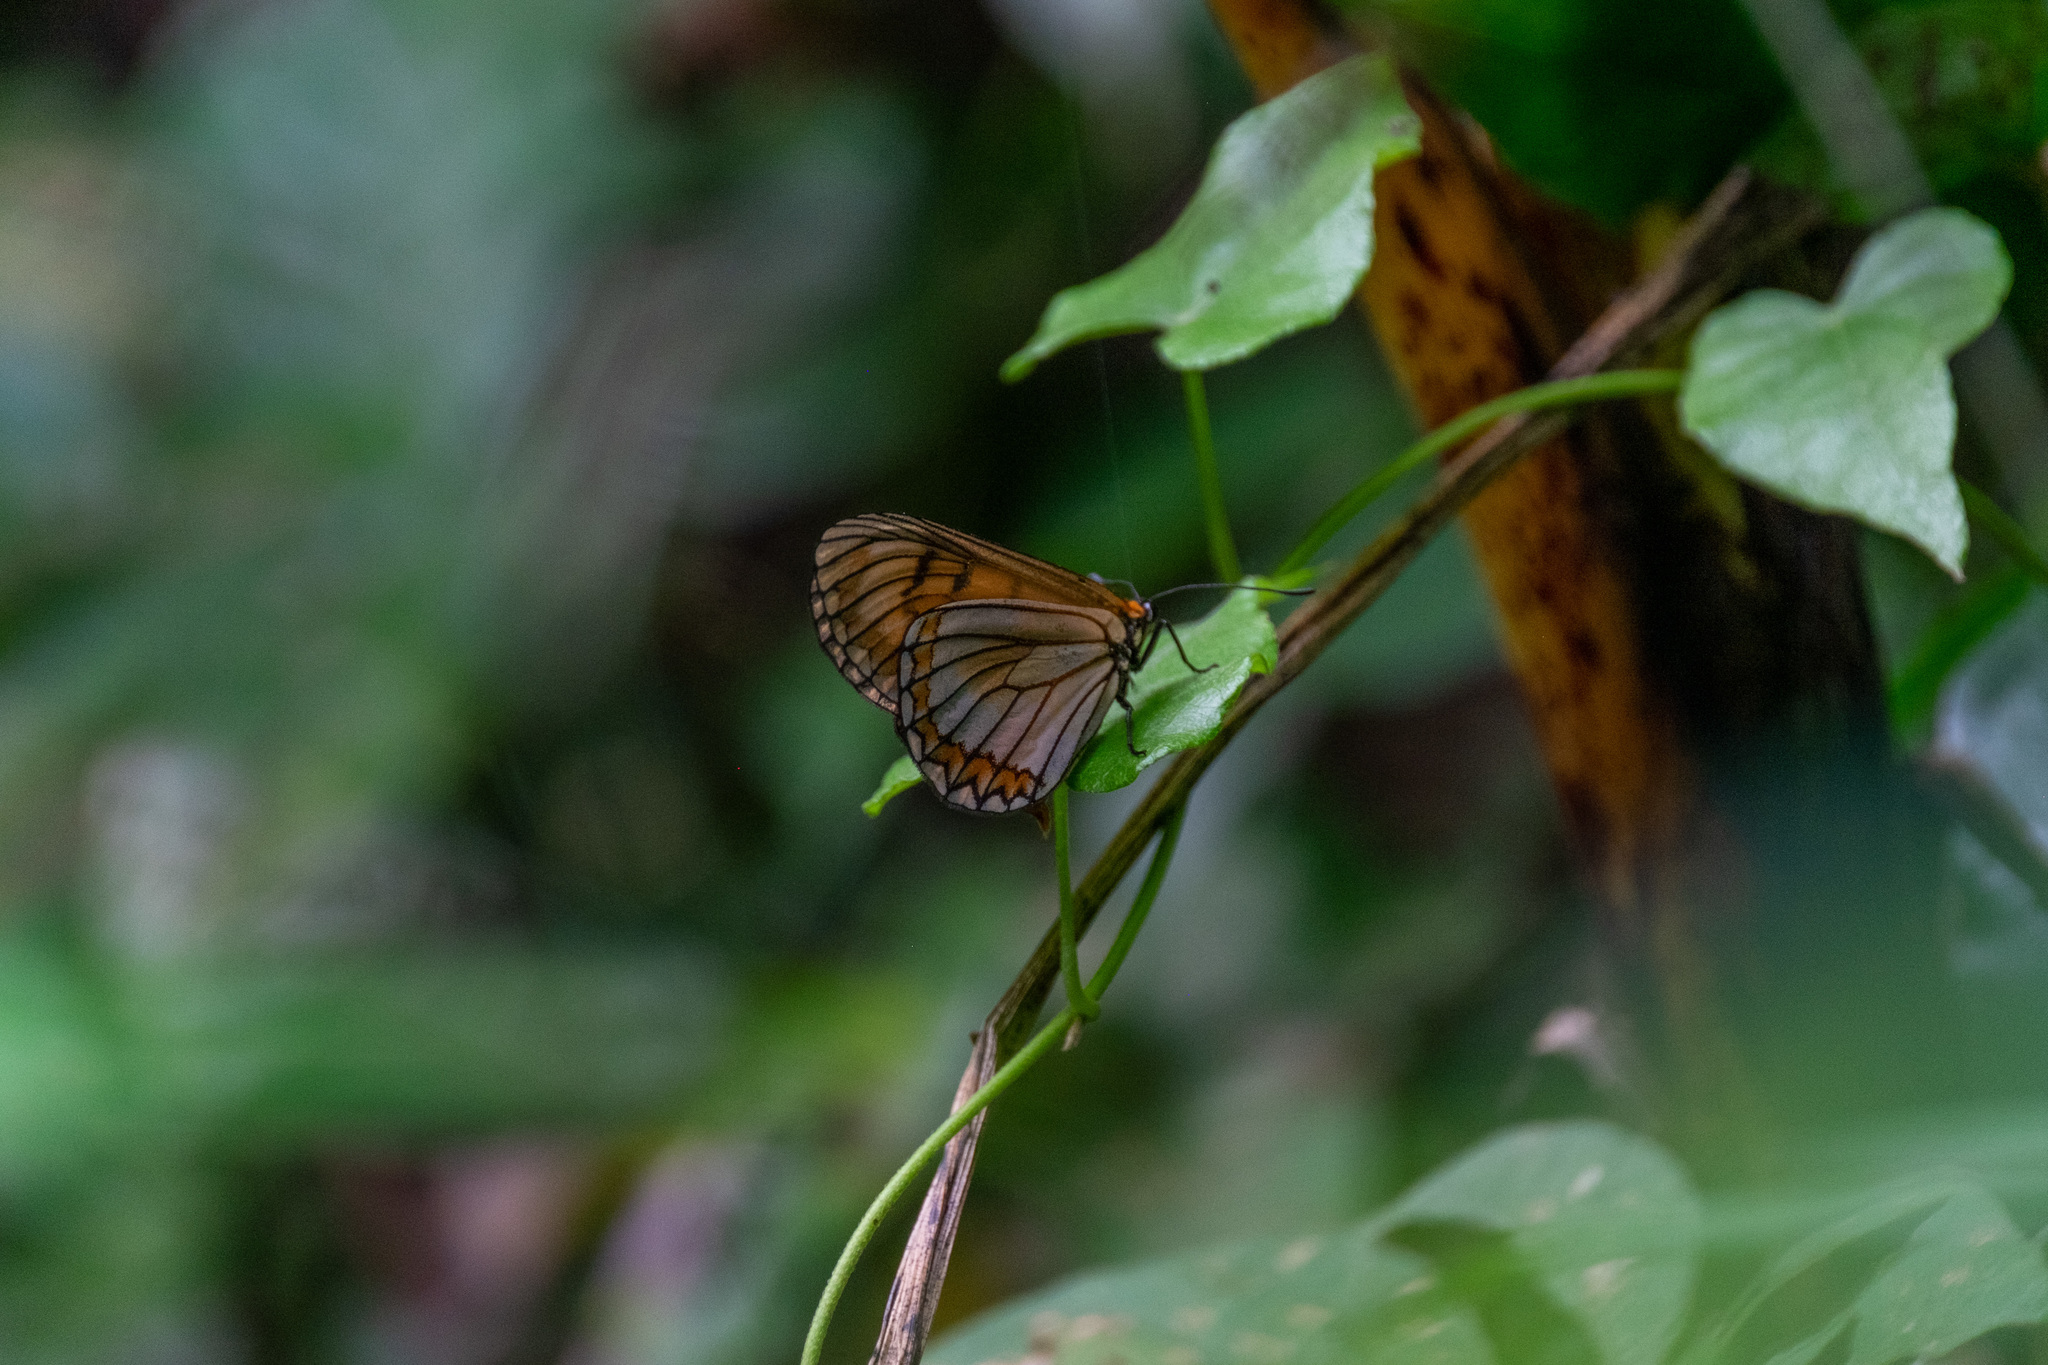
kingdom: Animalia
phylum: Arthropoda
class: Insecta
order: Lepidoptera
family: Nymphalidae
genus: Acraea
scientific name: Acraea Telchinia issoria
